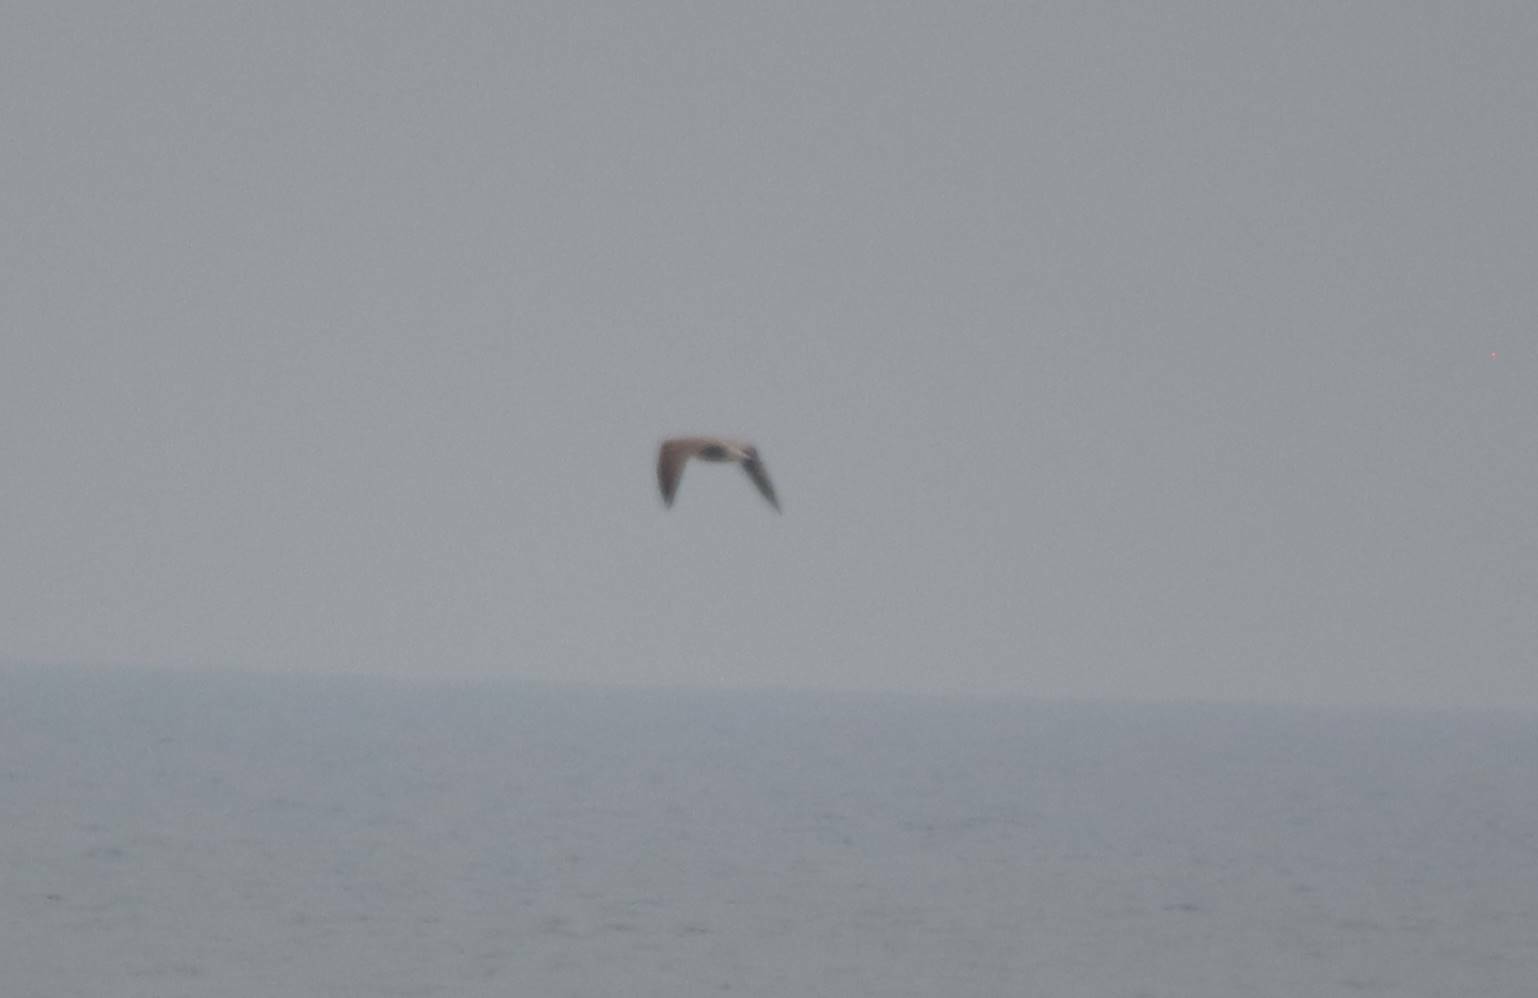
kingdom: Animalia
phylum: Chordata
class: Aves
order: Charadriiformes
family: Laridae
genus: Larus
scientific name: Larus michahellis
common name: Yellow-legged gull
